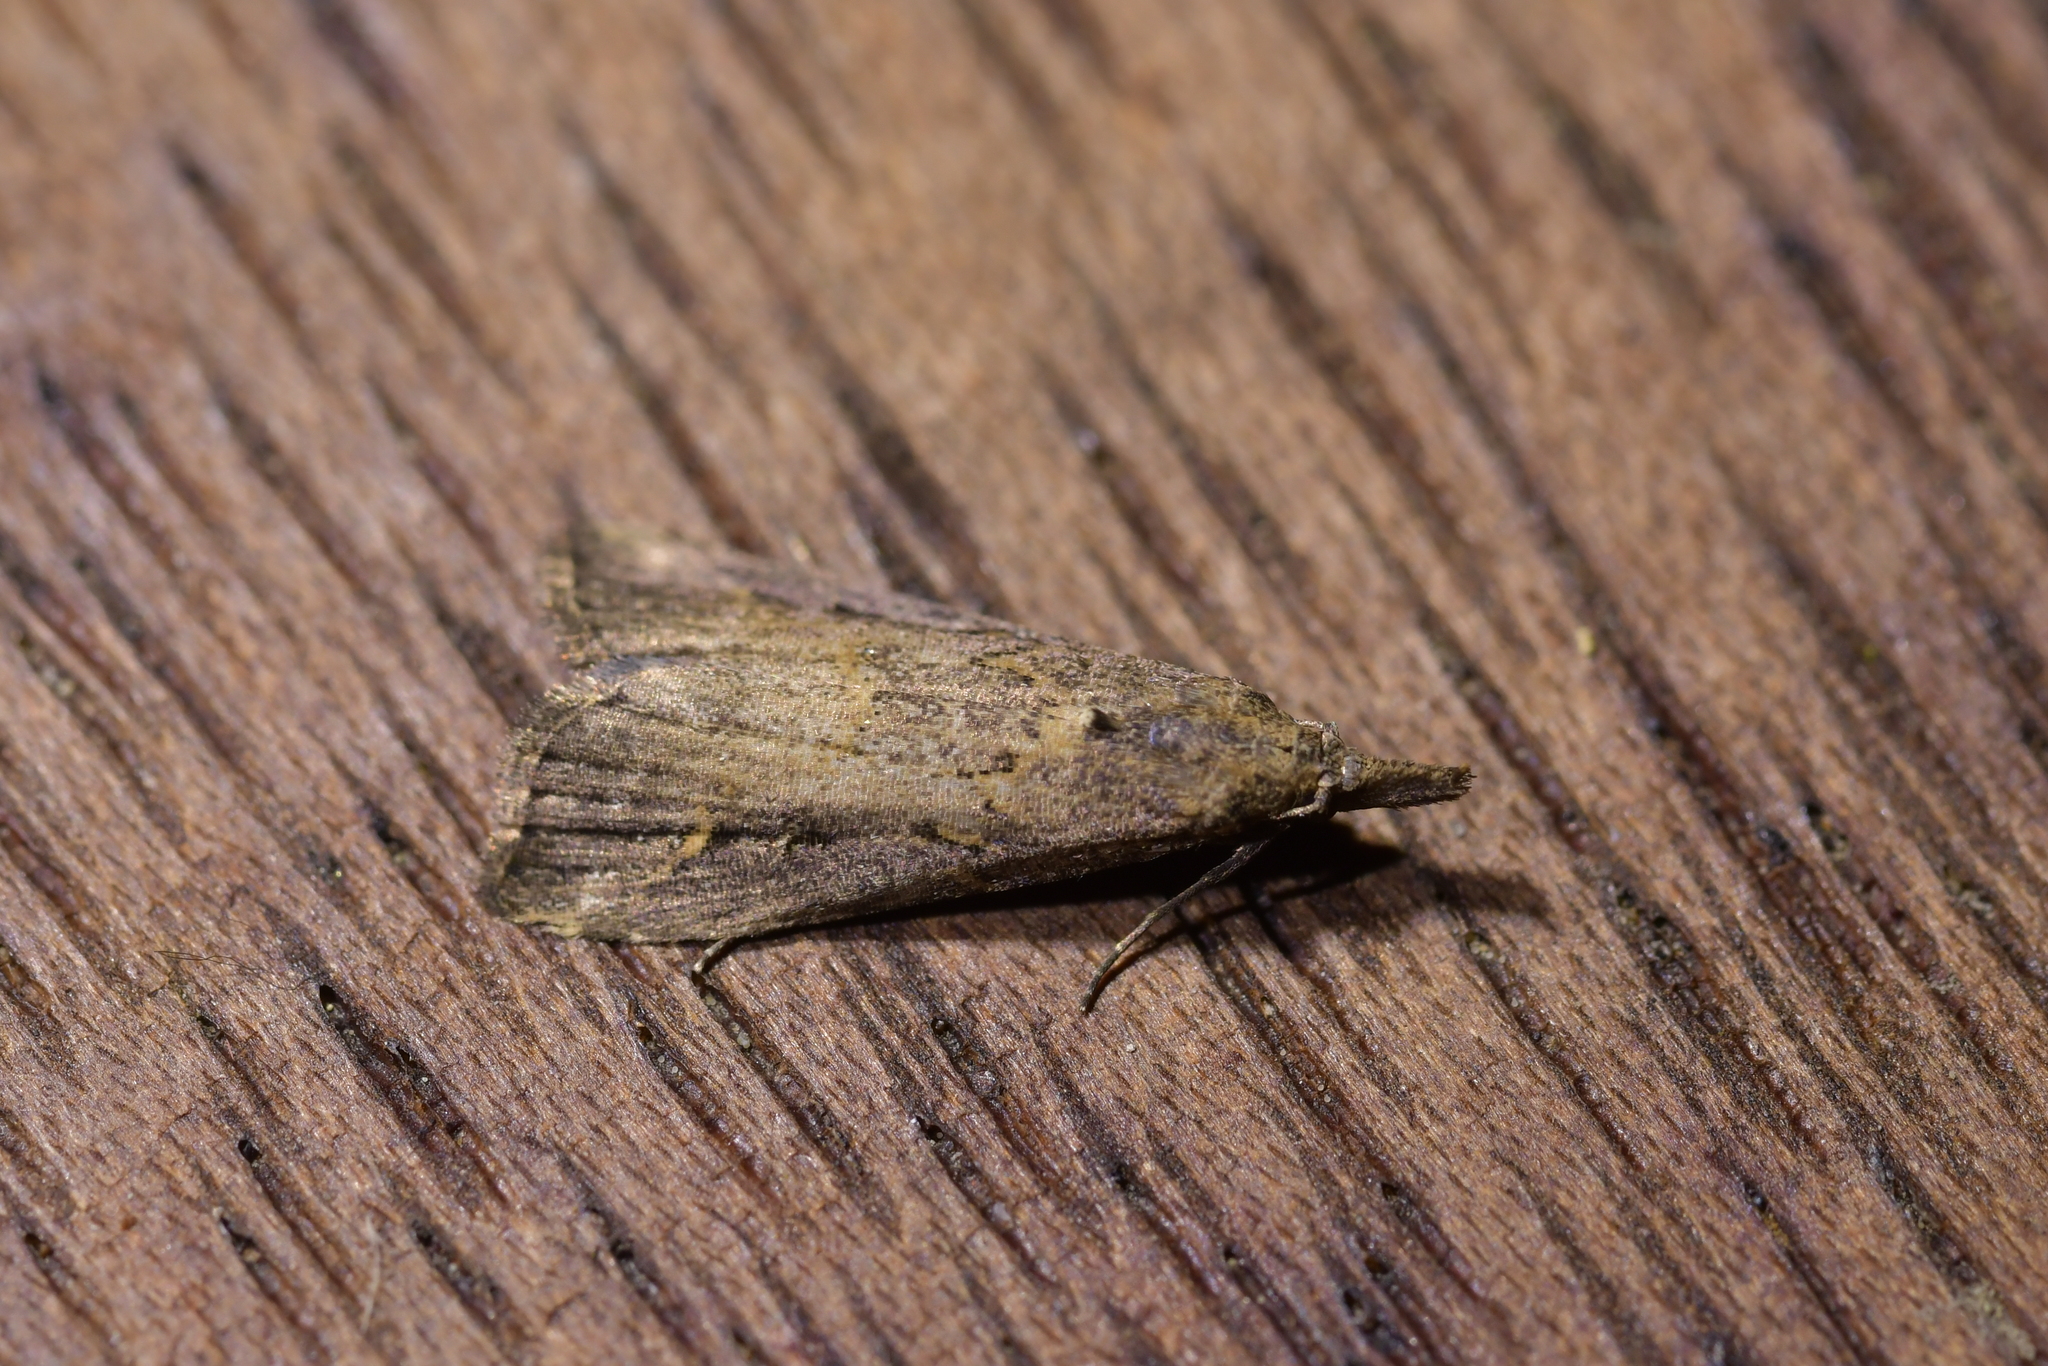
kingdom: Animalia
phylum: Arthropoda
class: Insecta
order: Lepidoptera
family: Erebidae
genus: Schrankia
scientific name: Schrankia costaestrigalis
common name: Pinion-streaked snout
